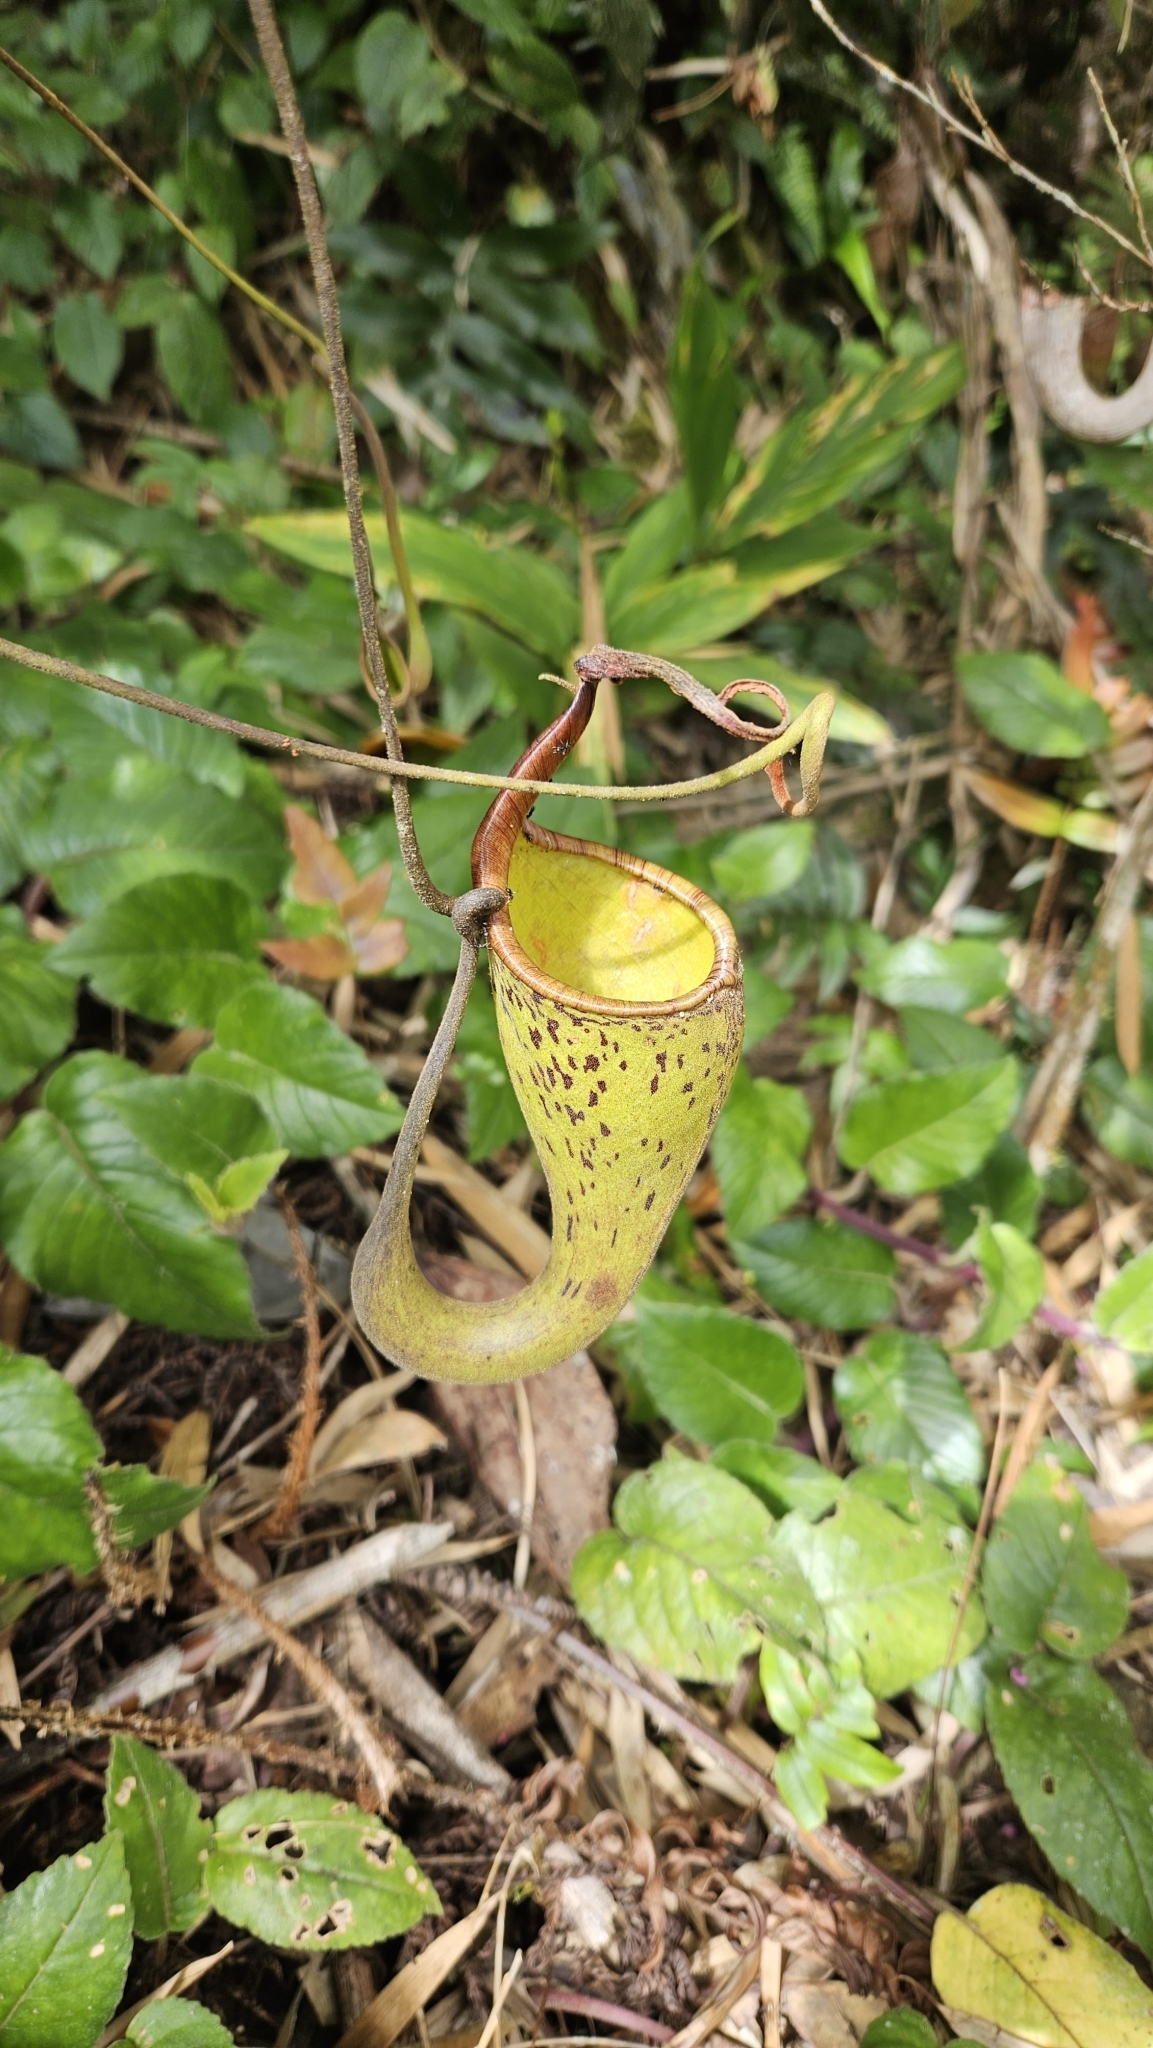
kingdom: Plantae
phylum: Tracheophyta
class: Magnoliopsida
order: Caryophyllales
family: Nepenthaceae
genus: Nepenthes
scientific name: Nepenthes fusca
